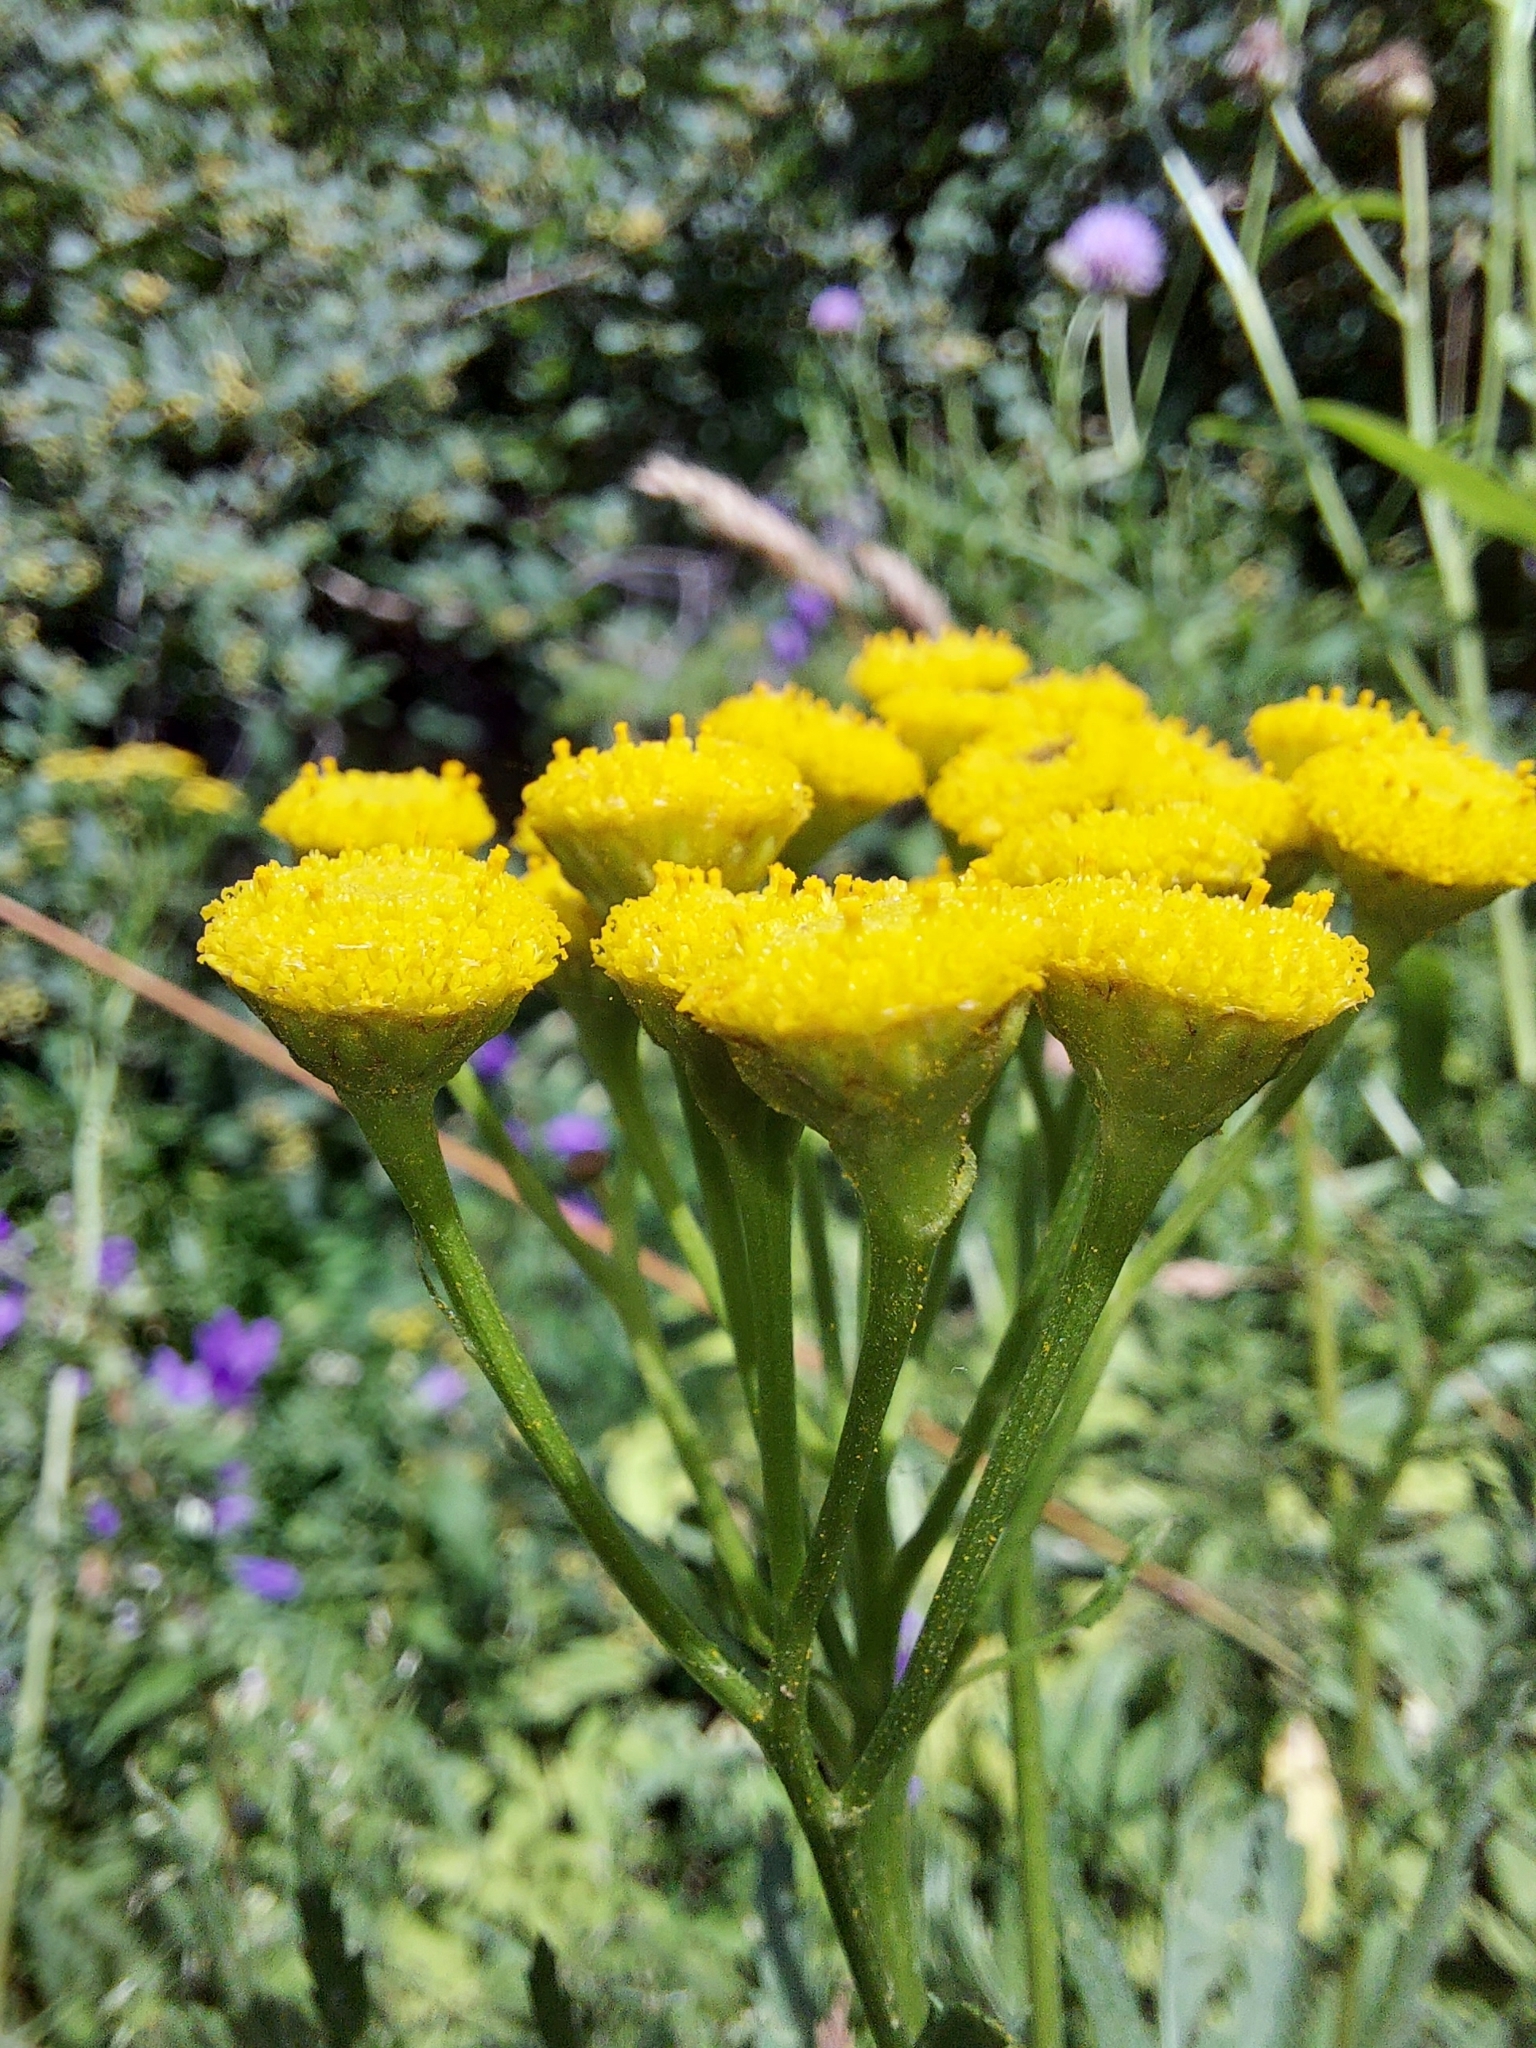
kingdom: Plantae
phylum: Tracheophyta
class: Magnoliopsida
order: Asterales
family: Asteraceae
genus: Tanacetum
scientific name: Tanacetum vulgare
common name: Common tansy
